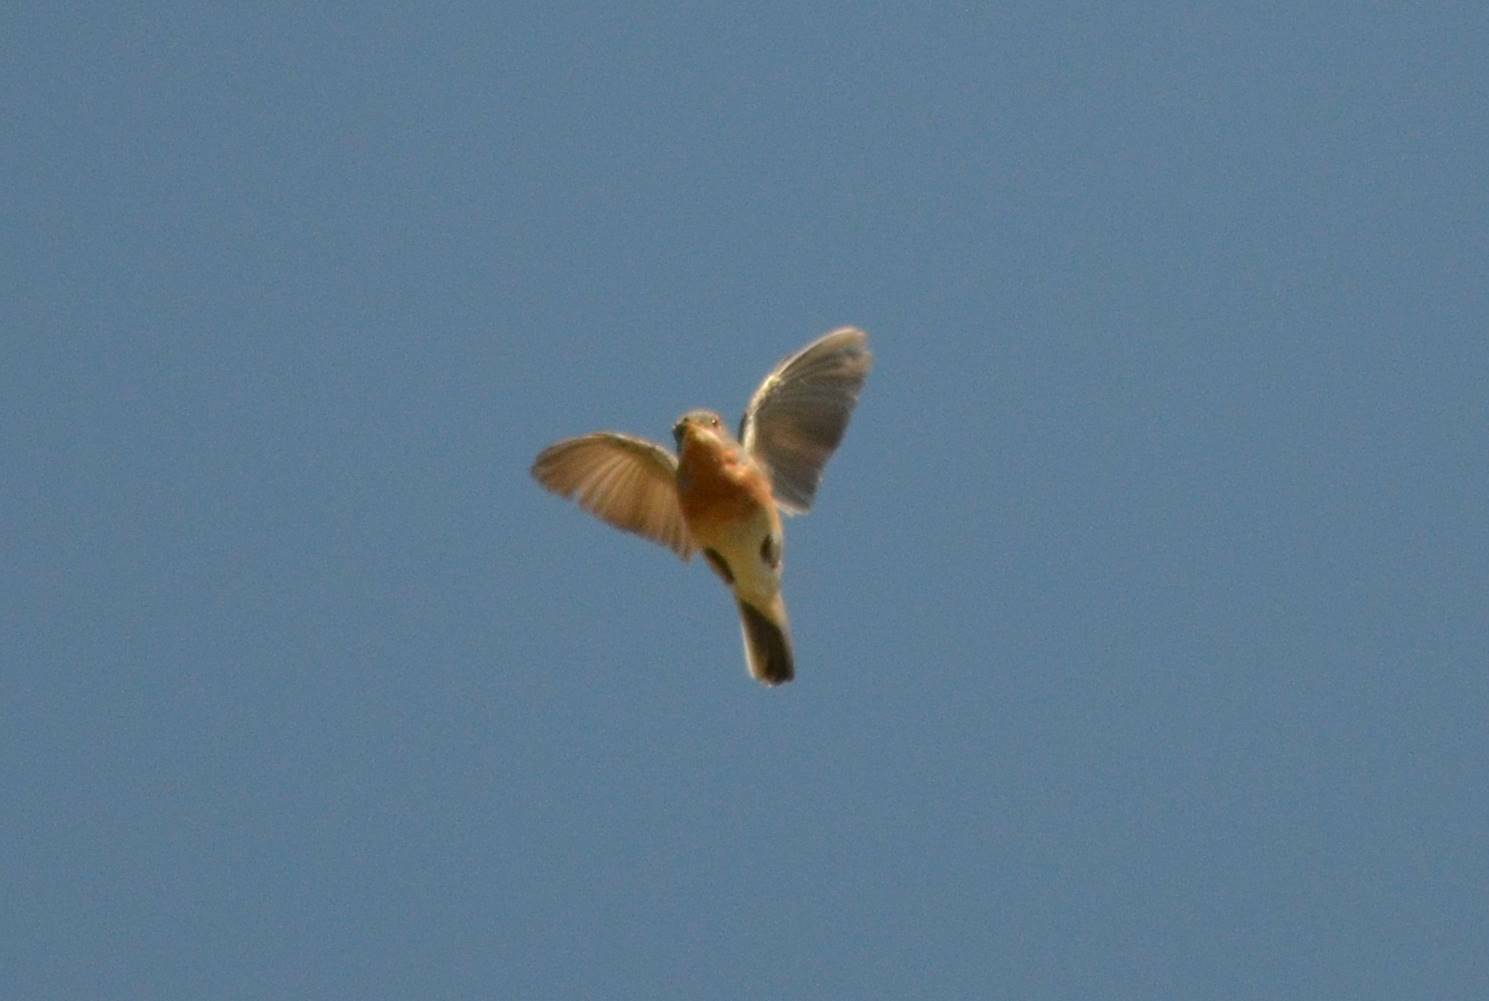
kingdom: Animalia
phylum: Chordata
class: Aves
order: Passeriformes
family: Sylviidae
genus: Sylvia
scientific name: Sylvia deserticola
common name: Tristram's warbler
